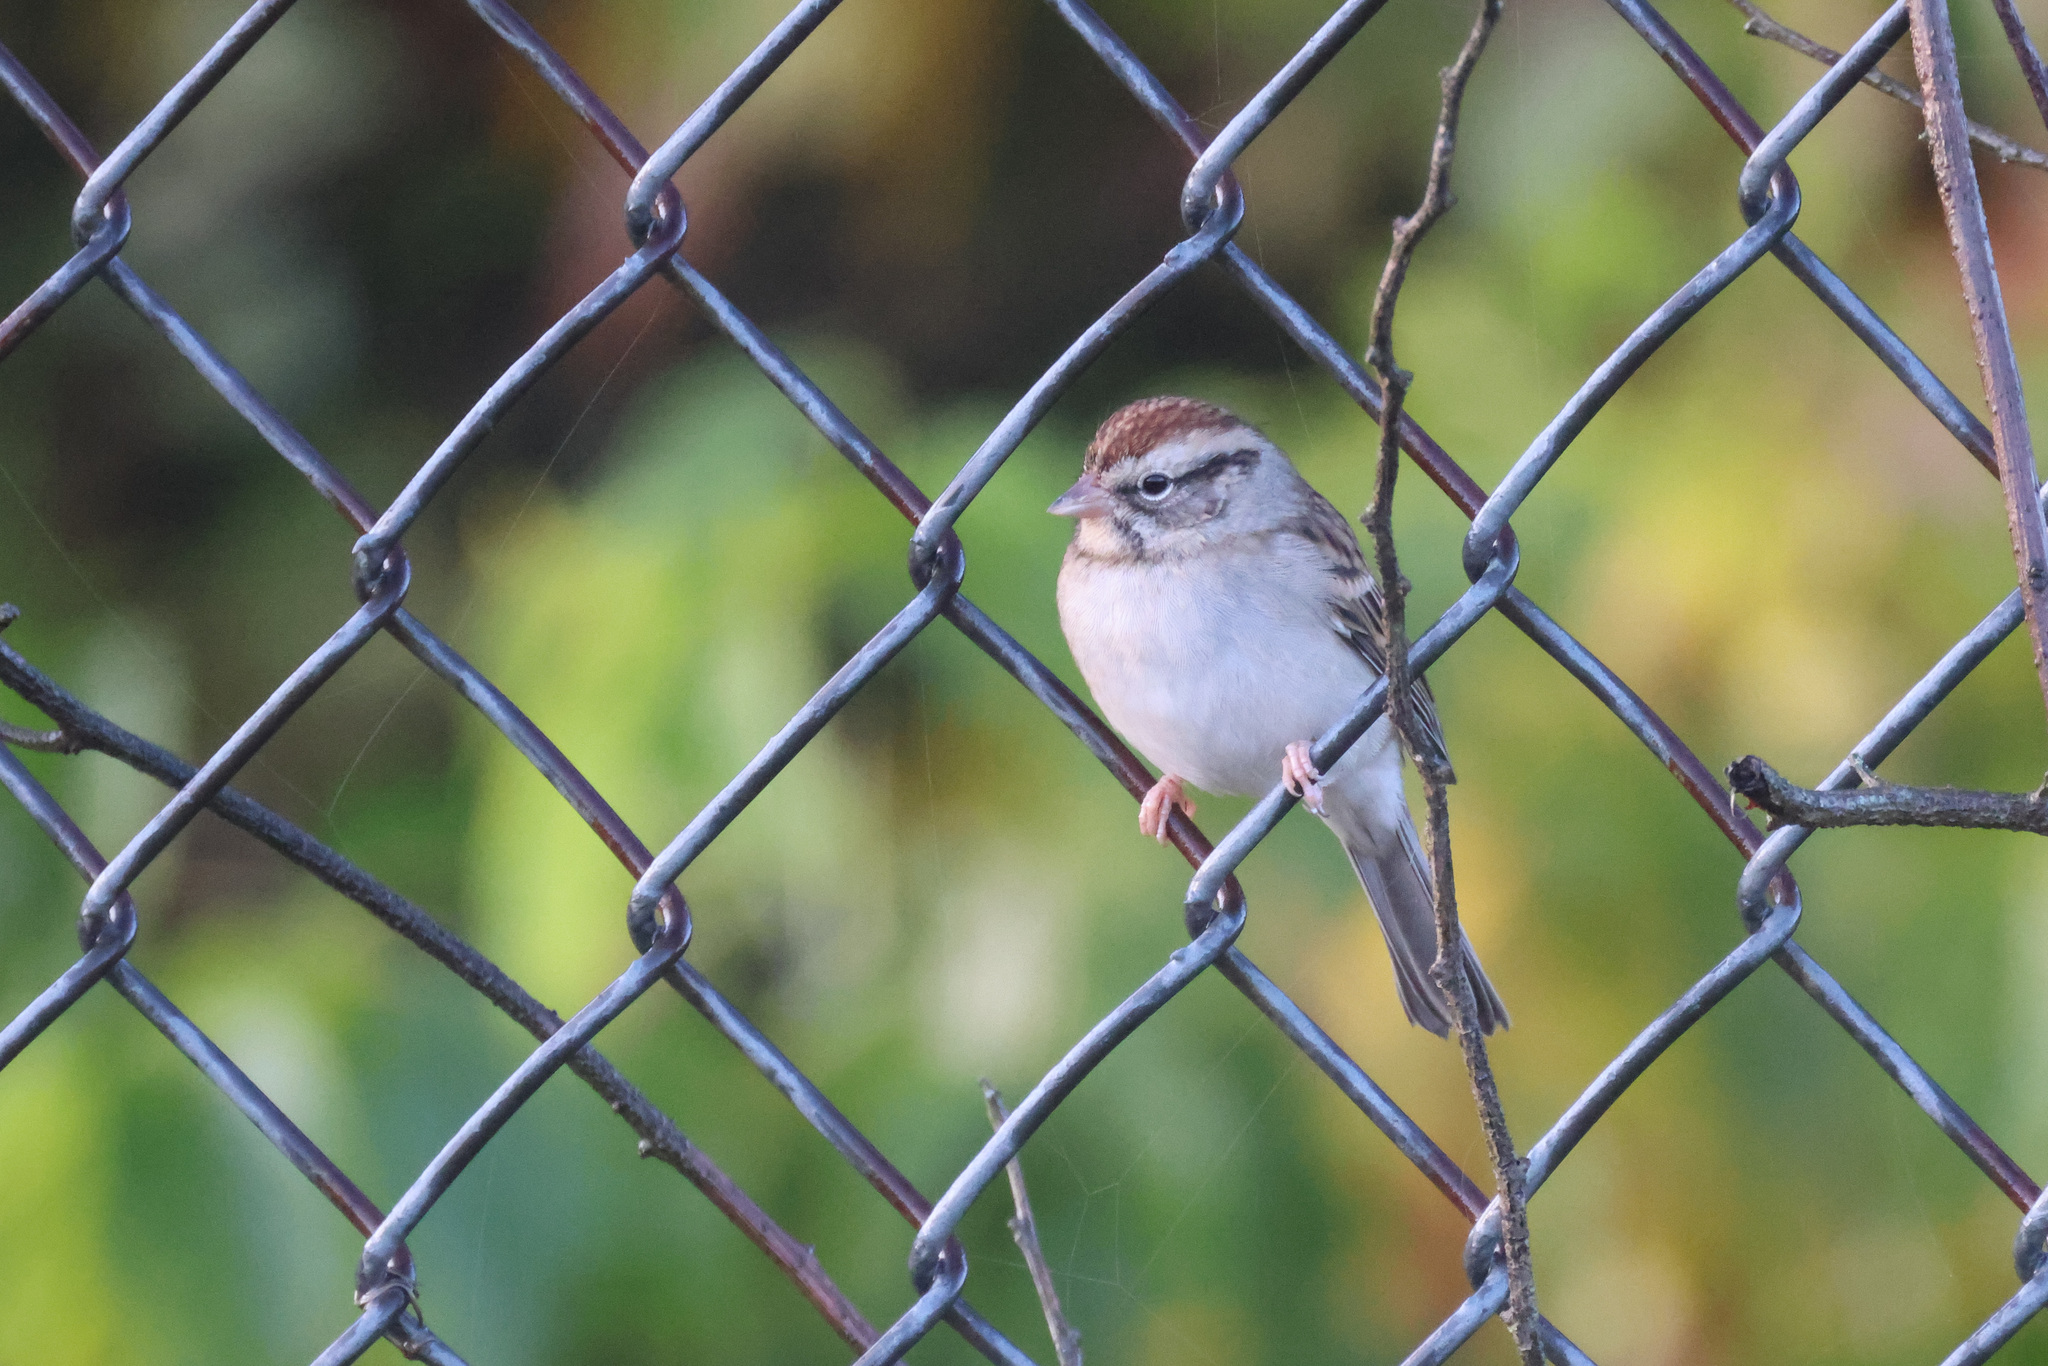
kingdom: Animalia
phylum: Chordata
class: Aves
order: Passeriformes
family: Passerellidae
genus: Spizella
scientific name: Spizella passerina
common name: Chipping sparrow
